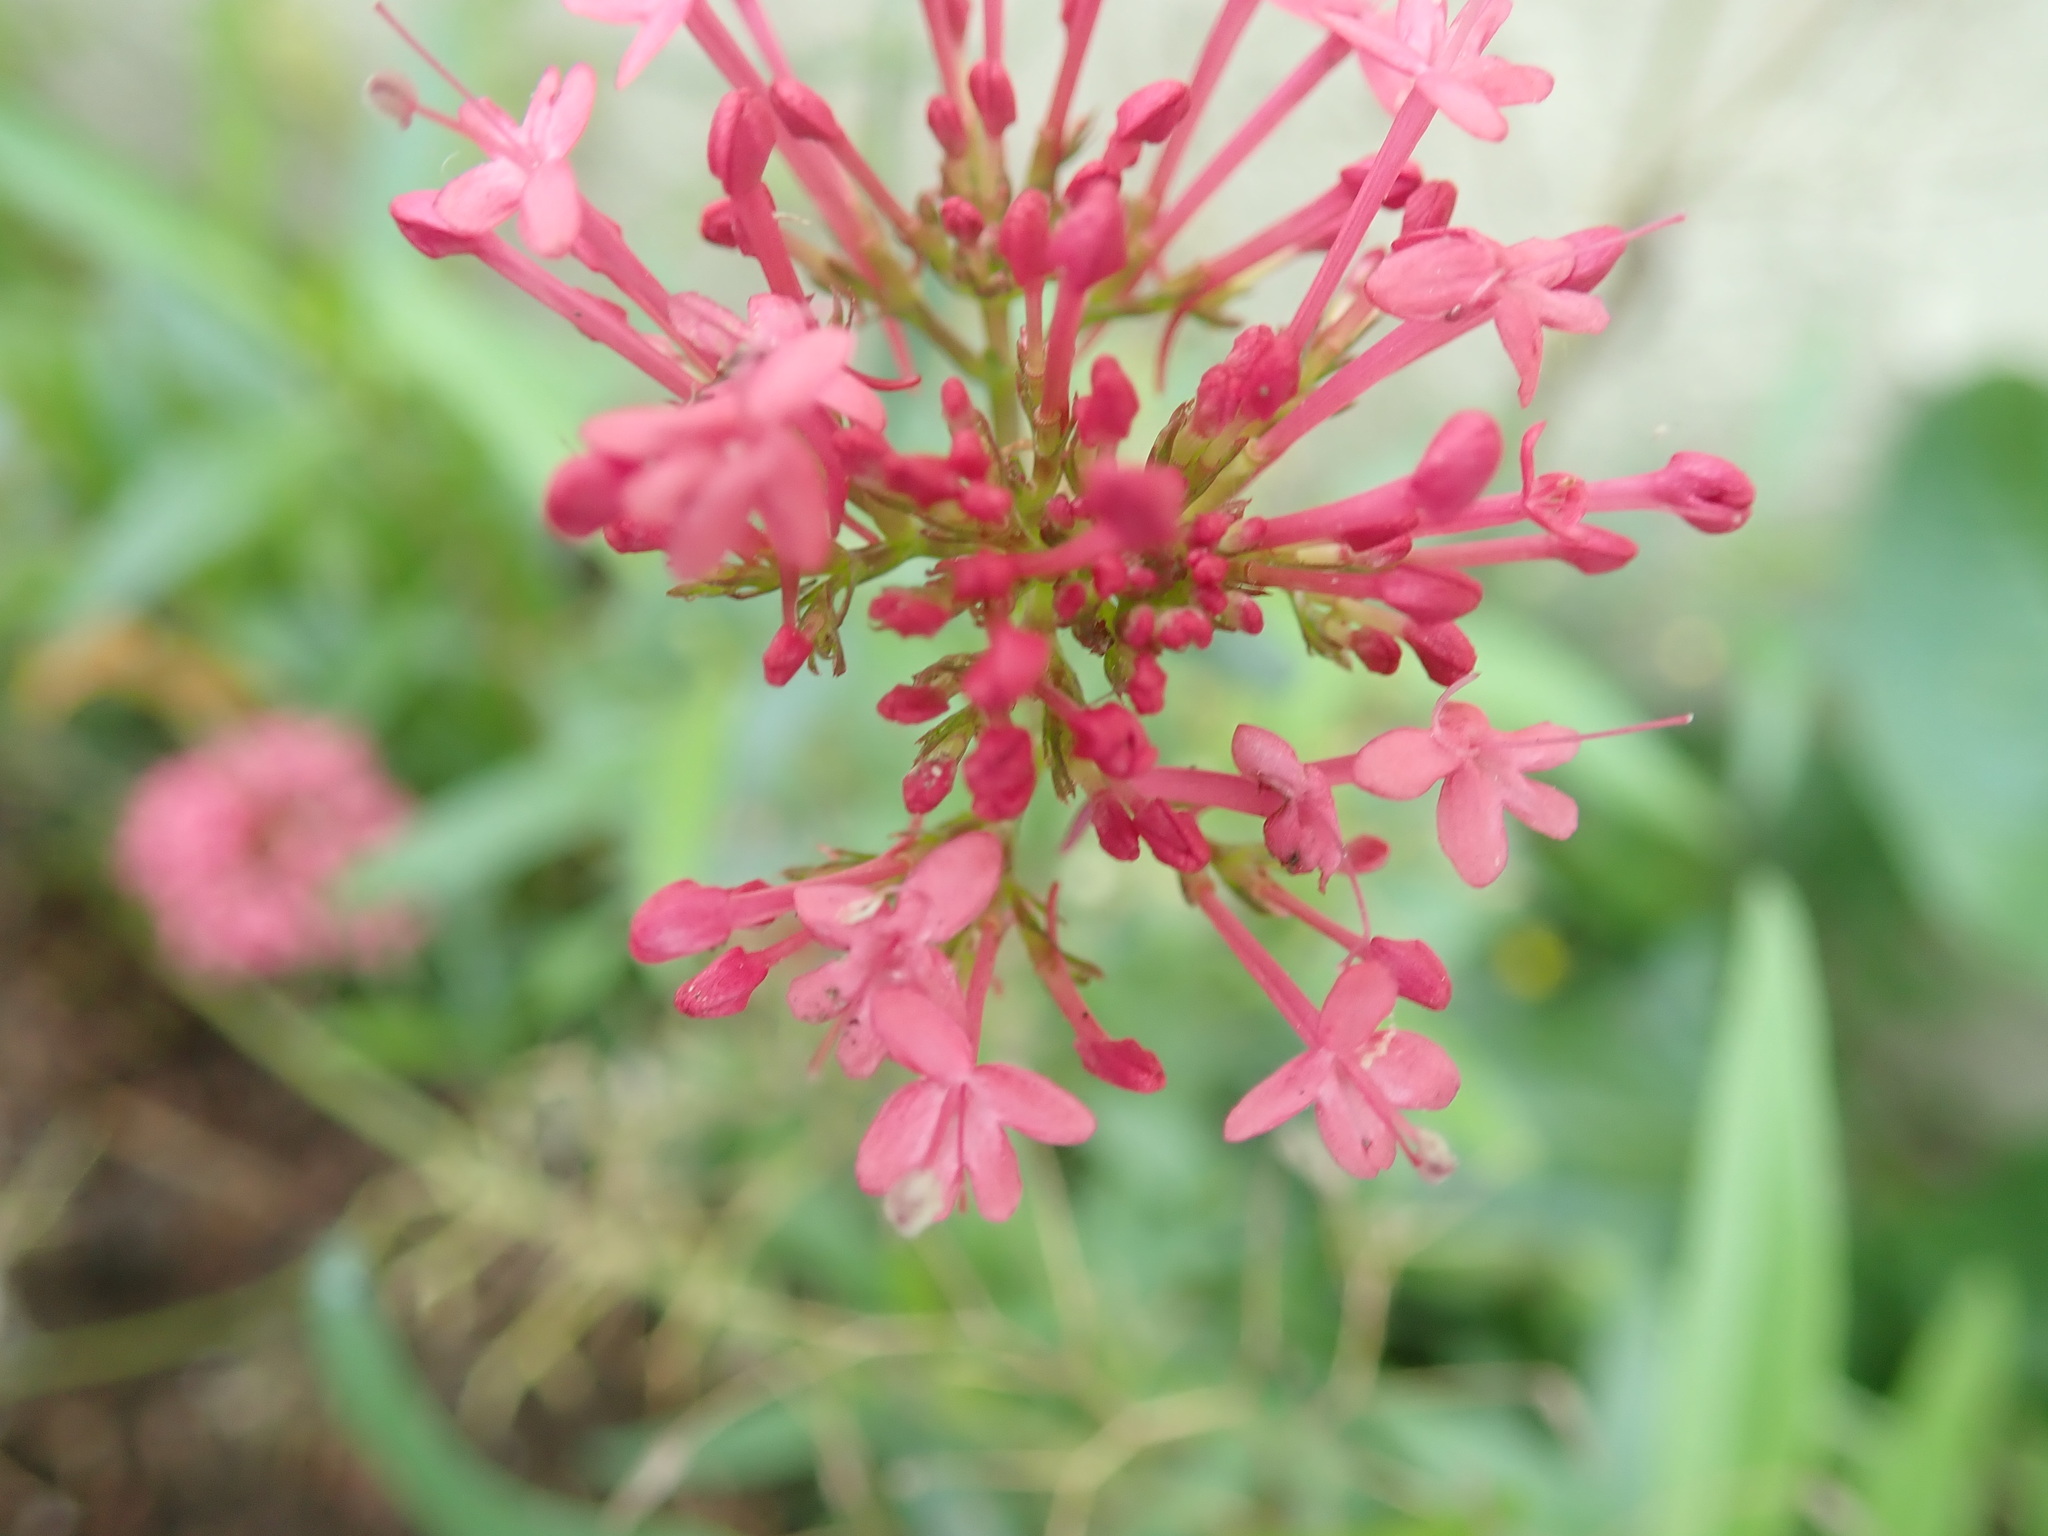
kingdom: Plantae
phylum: Tracheophyta
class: Magnoliopsida
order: Dipsacales
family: Caprifoliaceae
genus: Centranthus
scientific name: Centranthus ruber
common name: Red valerian
